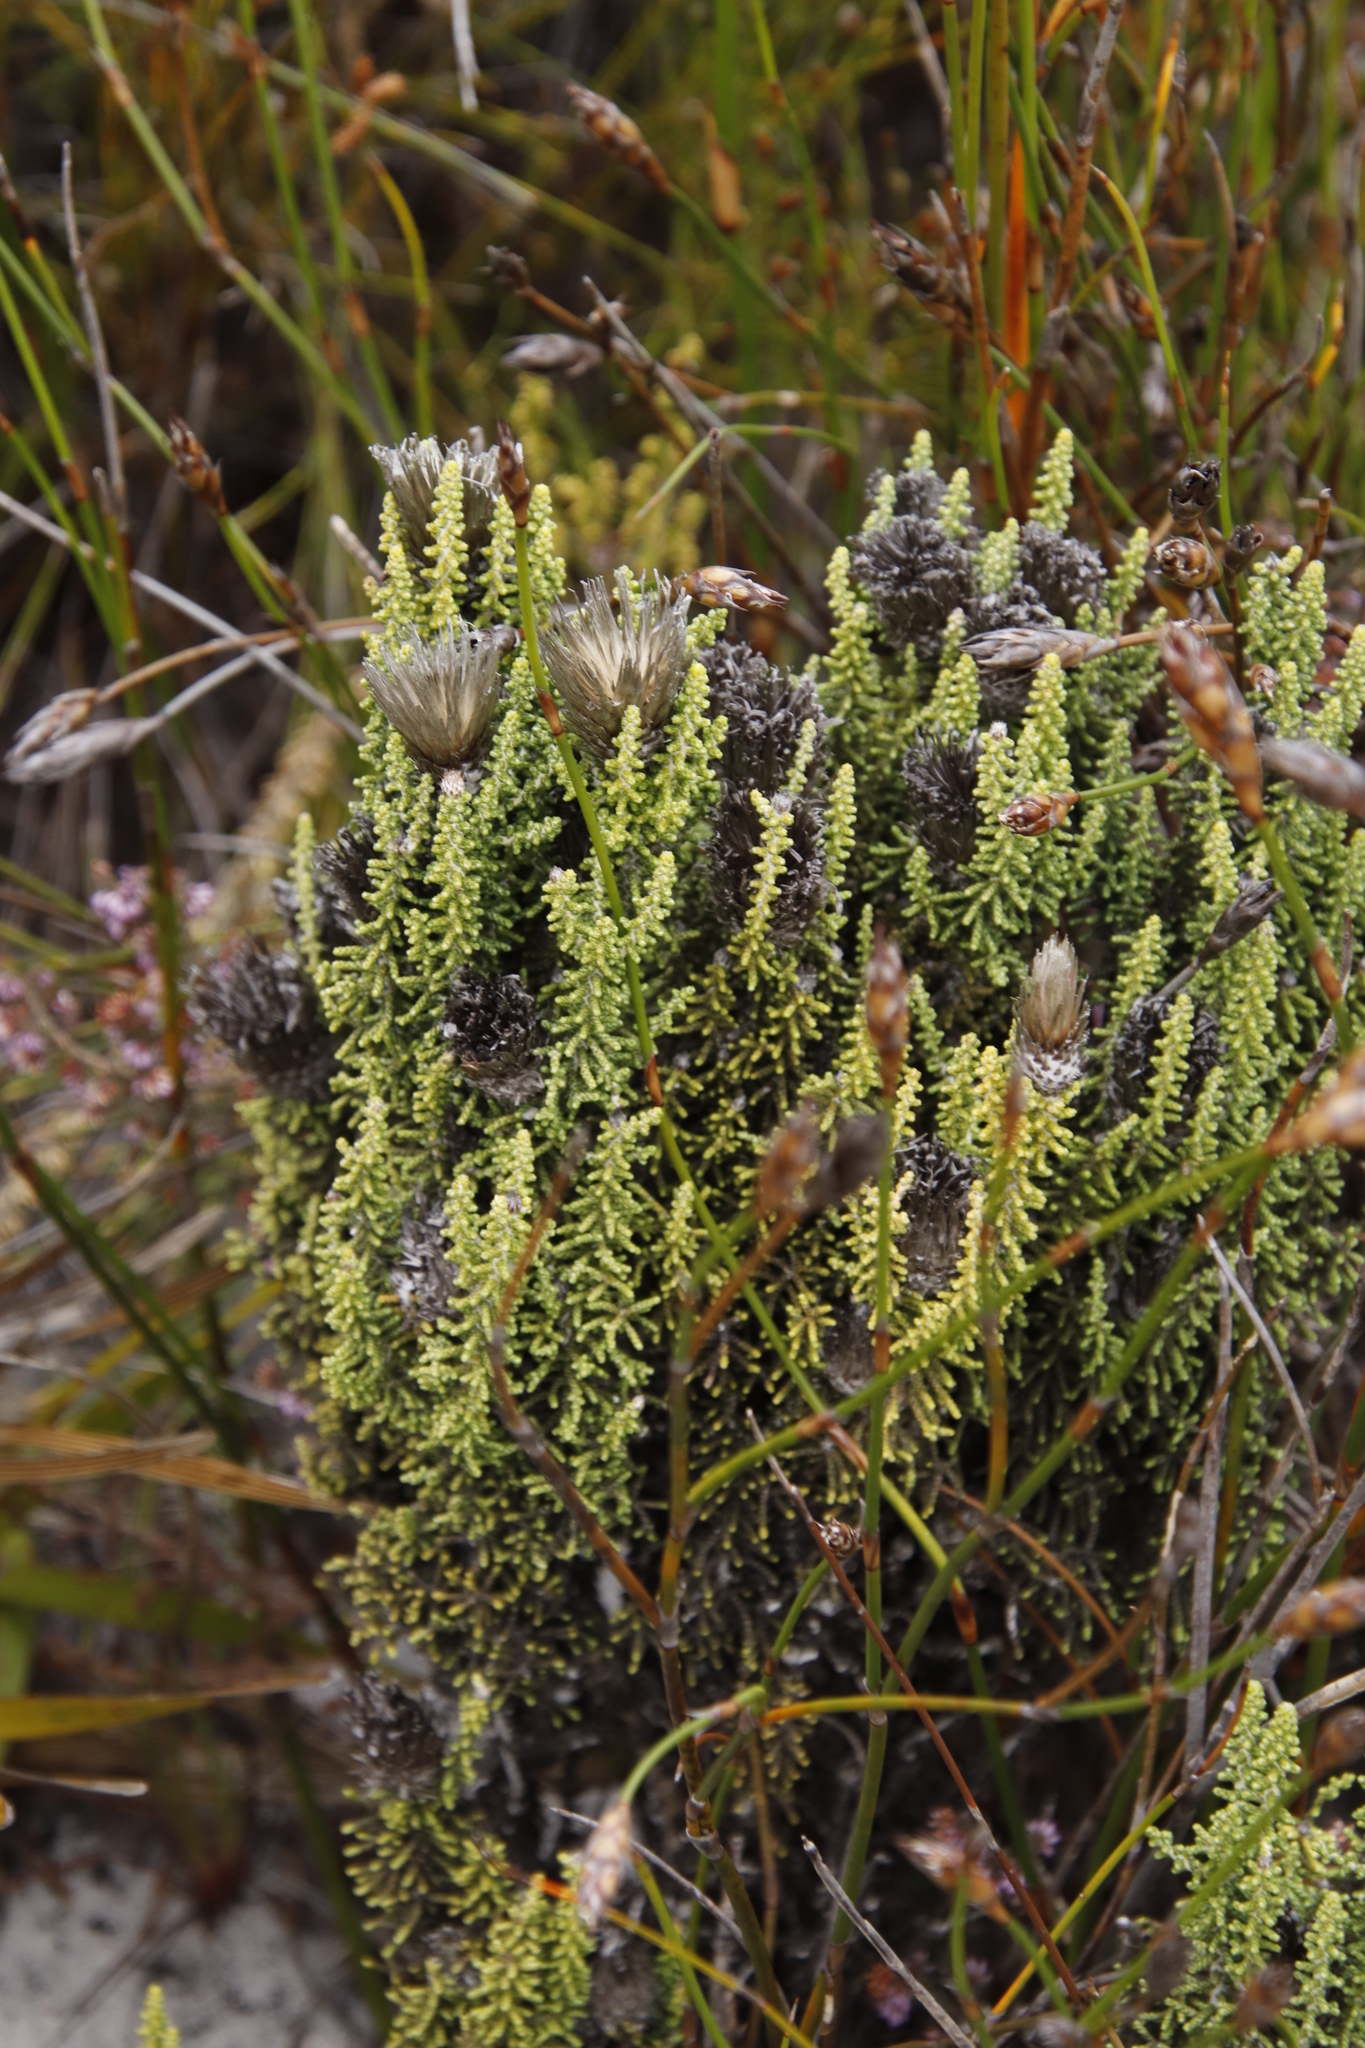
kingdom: Plantae
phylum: Tracheophyta
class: Magnoliopsida
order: Asterales
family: Asteraceae
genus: Phaenocoma
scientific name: Phaenocoma prolifera
